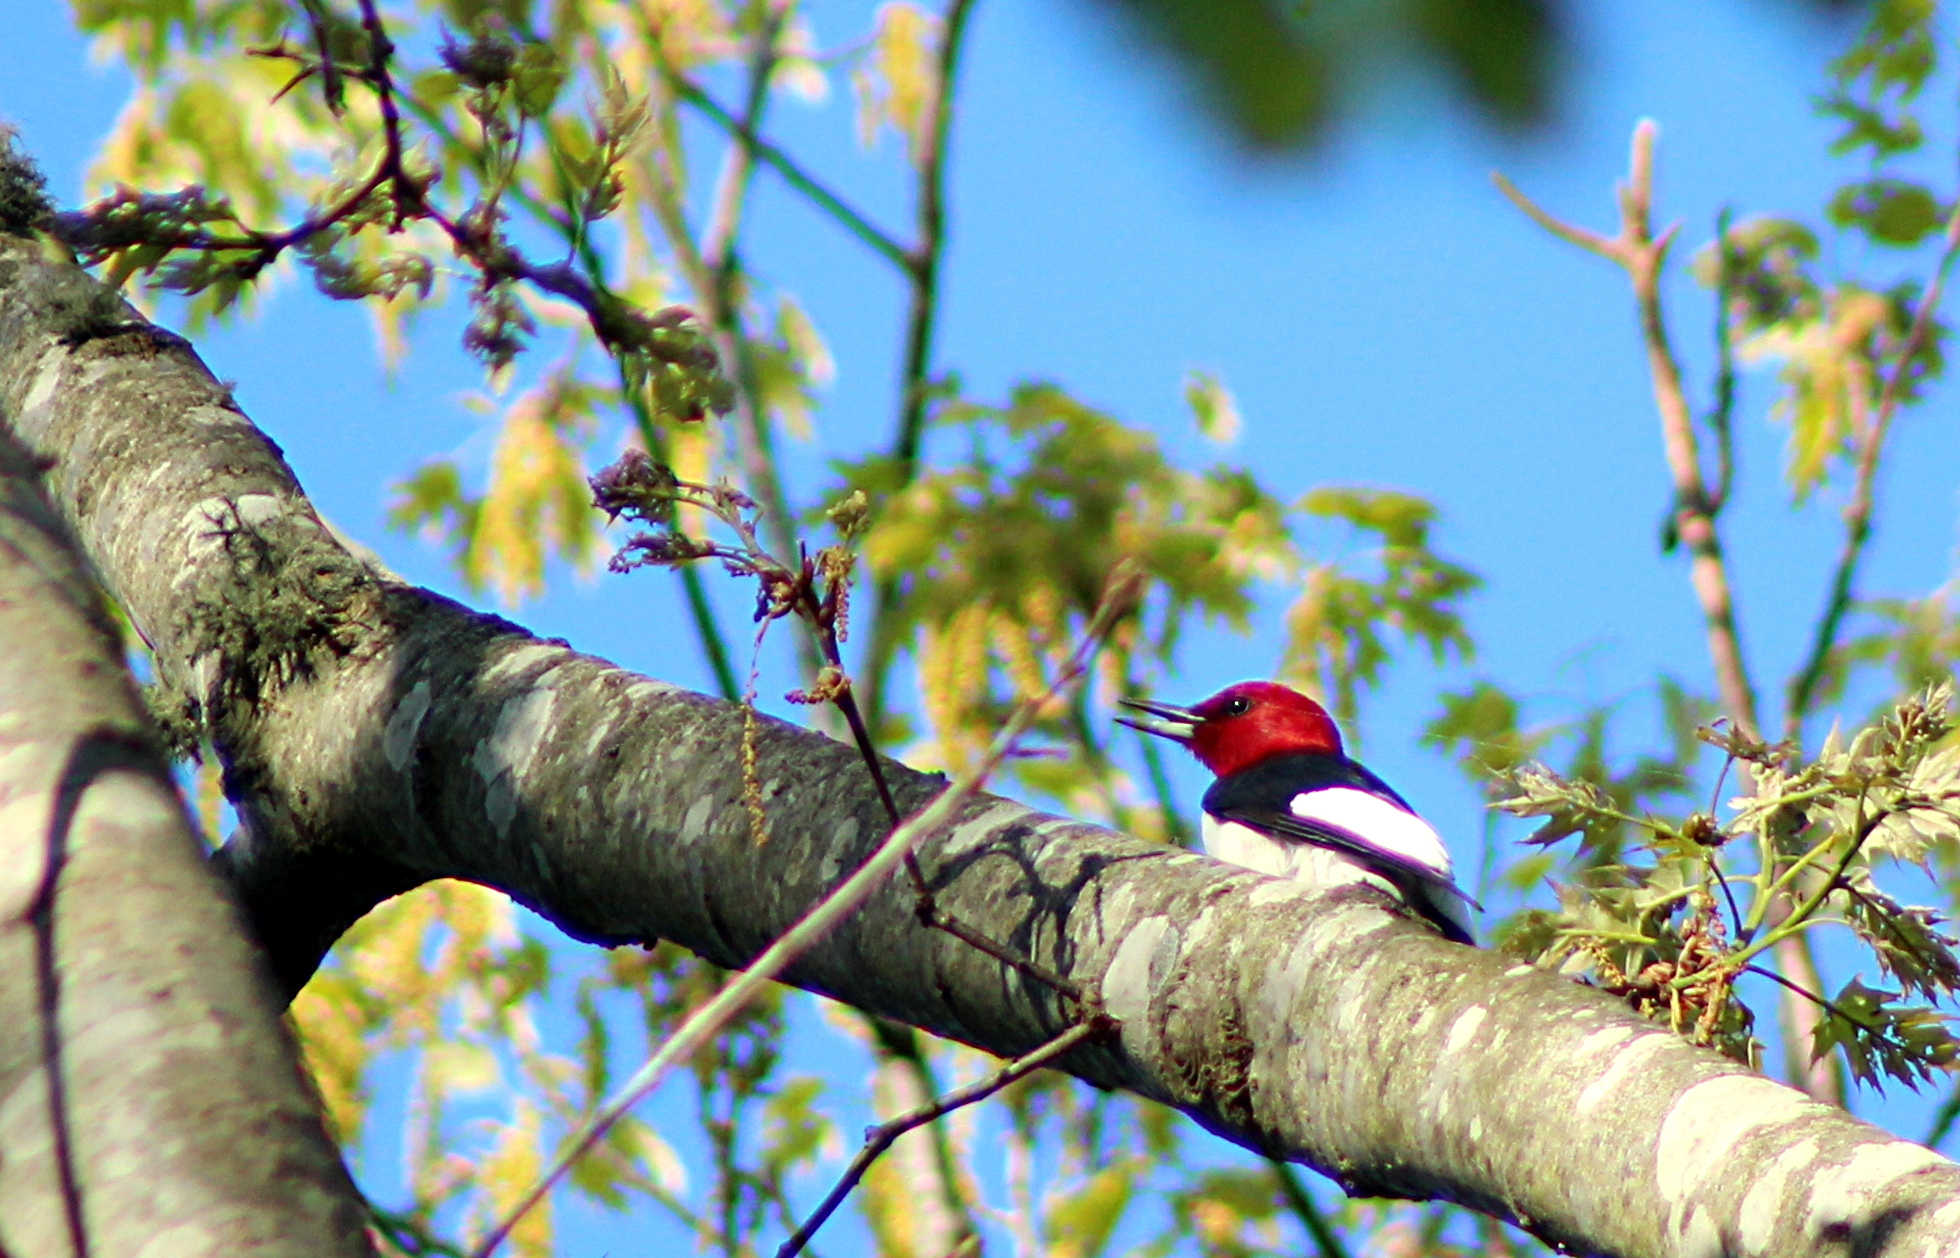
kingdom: Animalia
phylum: Chordata
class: Aves
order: Piciformes
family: Picidae
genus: Melanerpes
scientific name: Melanerpes erythrocephalus
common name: Red-headed woodpecker
